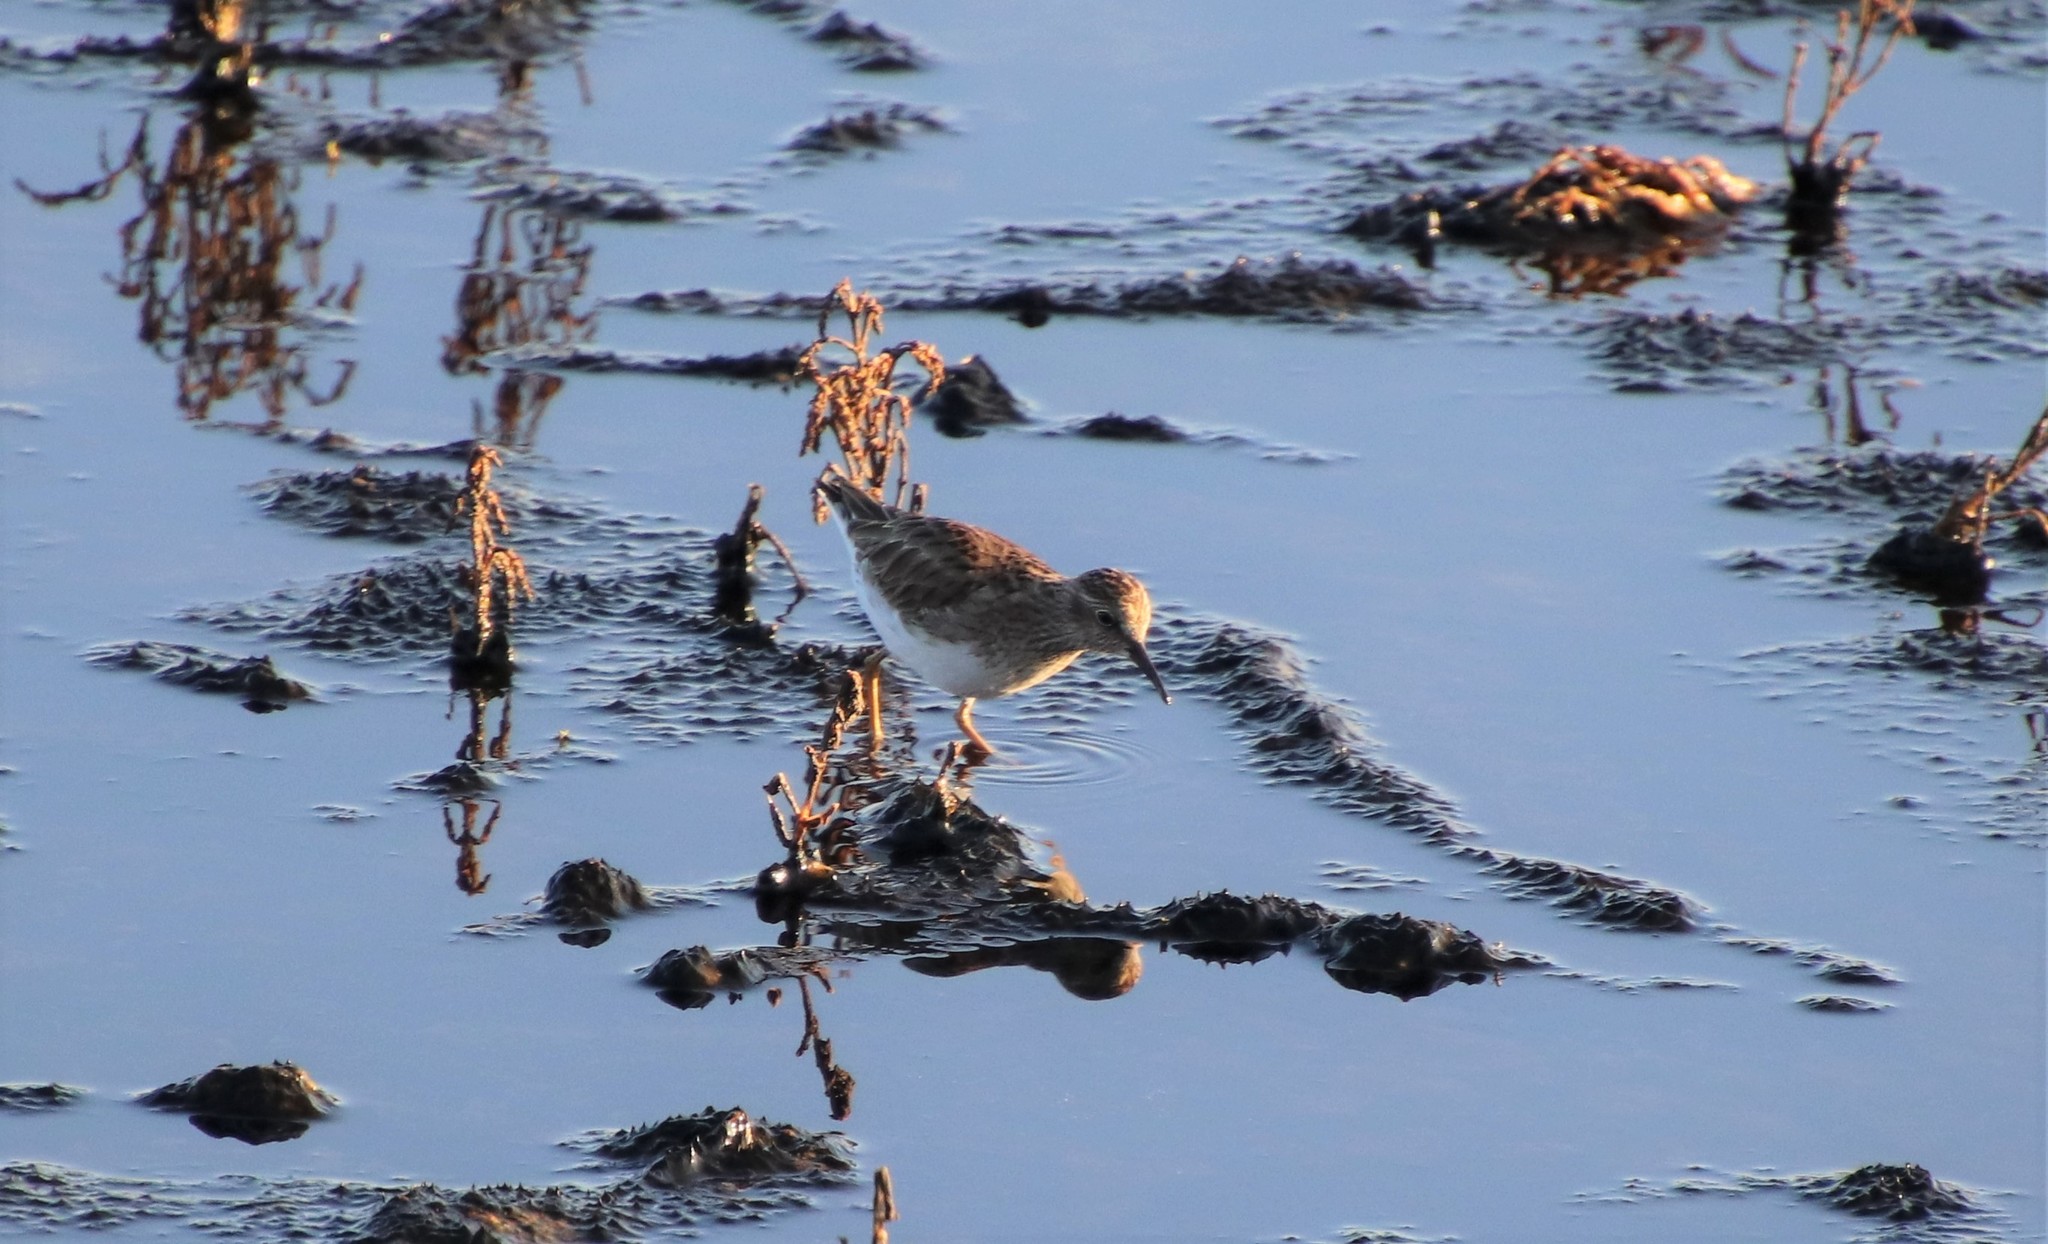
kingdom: Animalia
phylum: Chordata
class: Aves
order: Charadriiformes
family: Scolopacidae
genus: Calidris
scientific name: Calidris minutilla
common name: Least sandpiper
